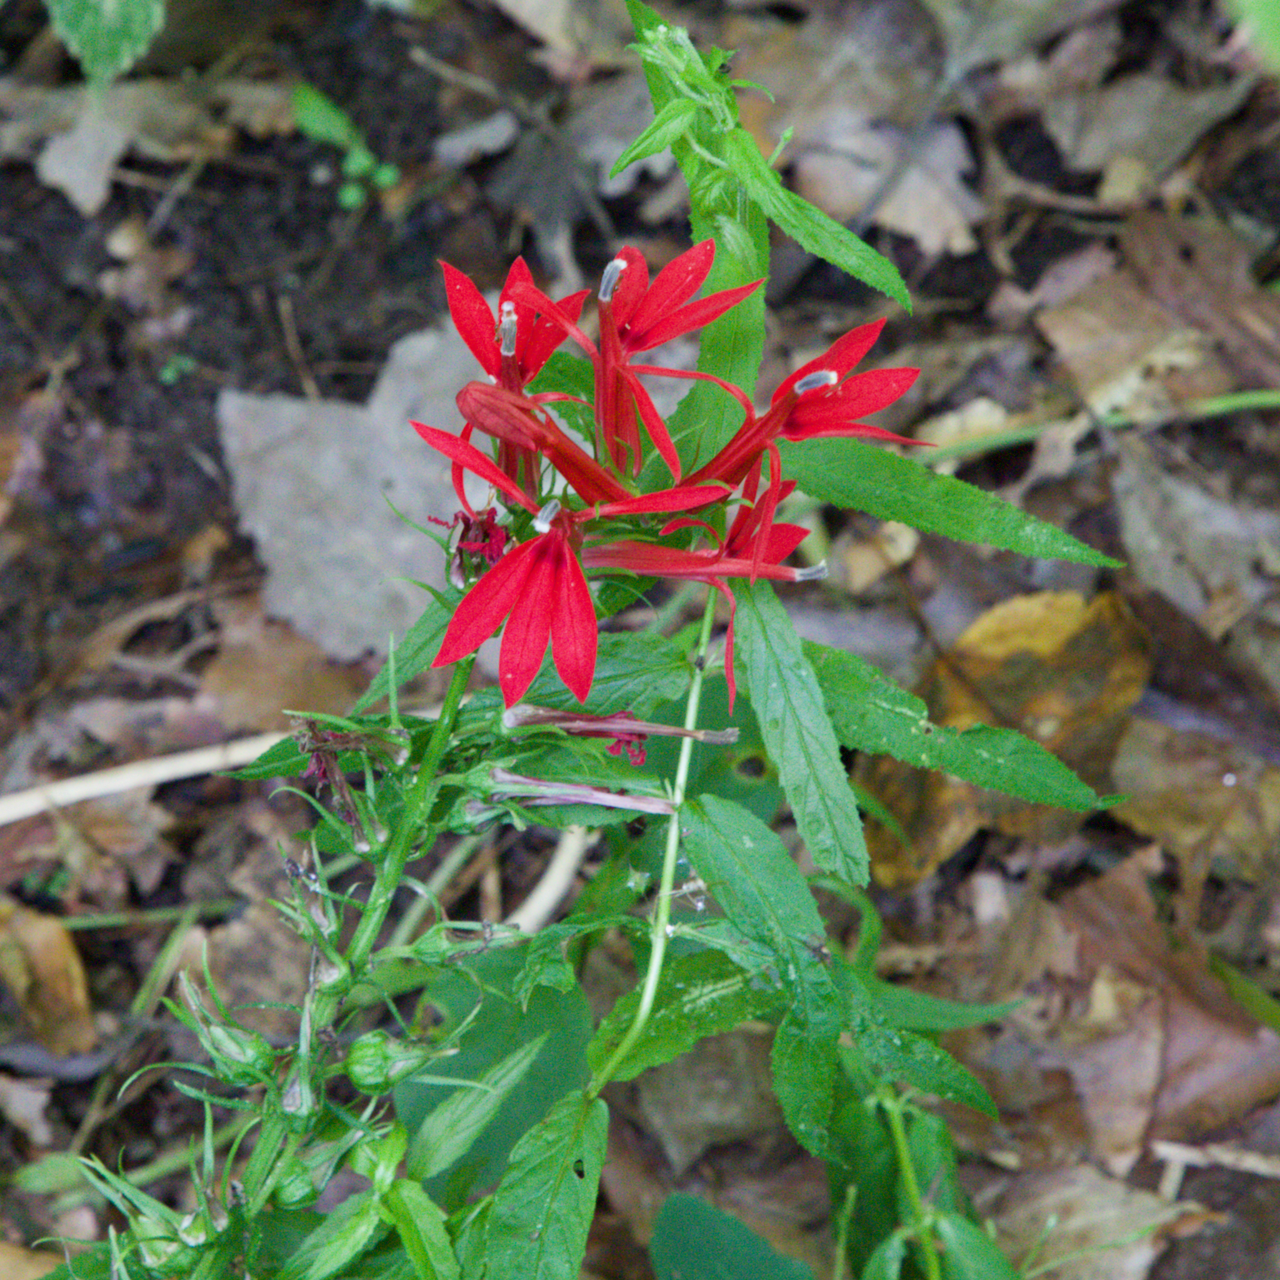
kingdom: Plantae
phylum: Tracheophyta
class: Magnoliopsida
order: Asterales
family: Campanulaceae
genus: Lobelia
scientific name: Lobelia cardinalis
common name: Cardinal flower
